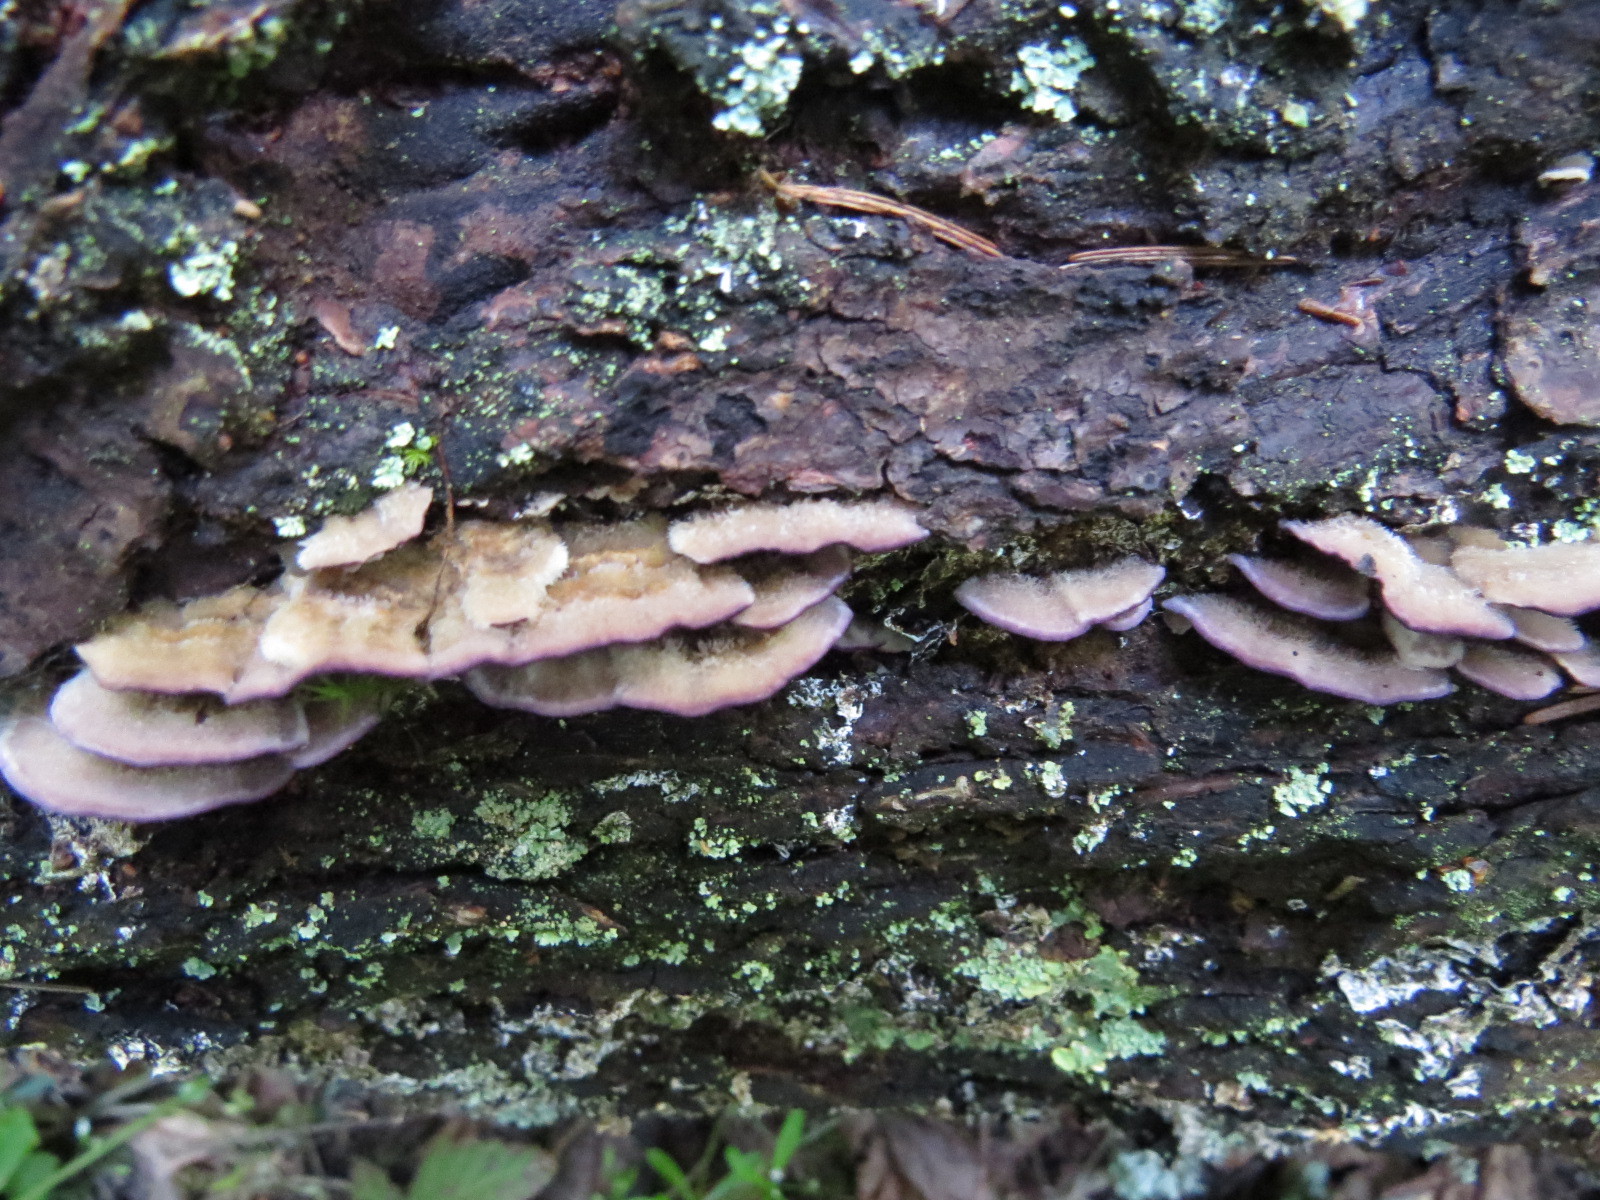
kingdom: Fungi
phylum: Basidiomycota
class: Agaricomycetes
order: Hymenochaetales
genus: Trichaptum
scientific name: Trichaptum abietinum
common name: Purplepore bracket
